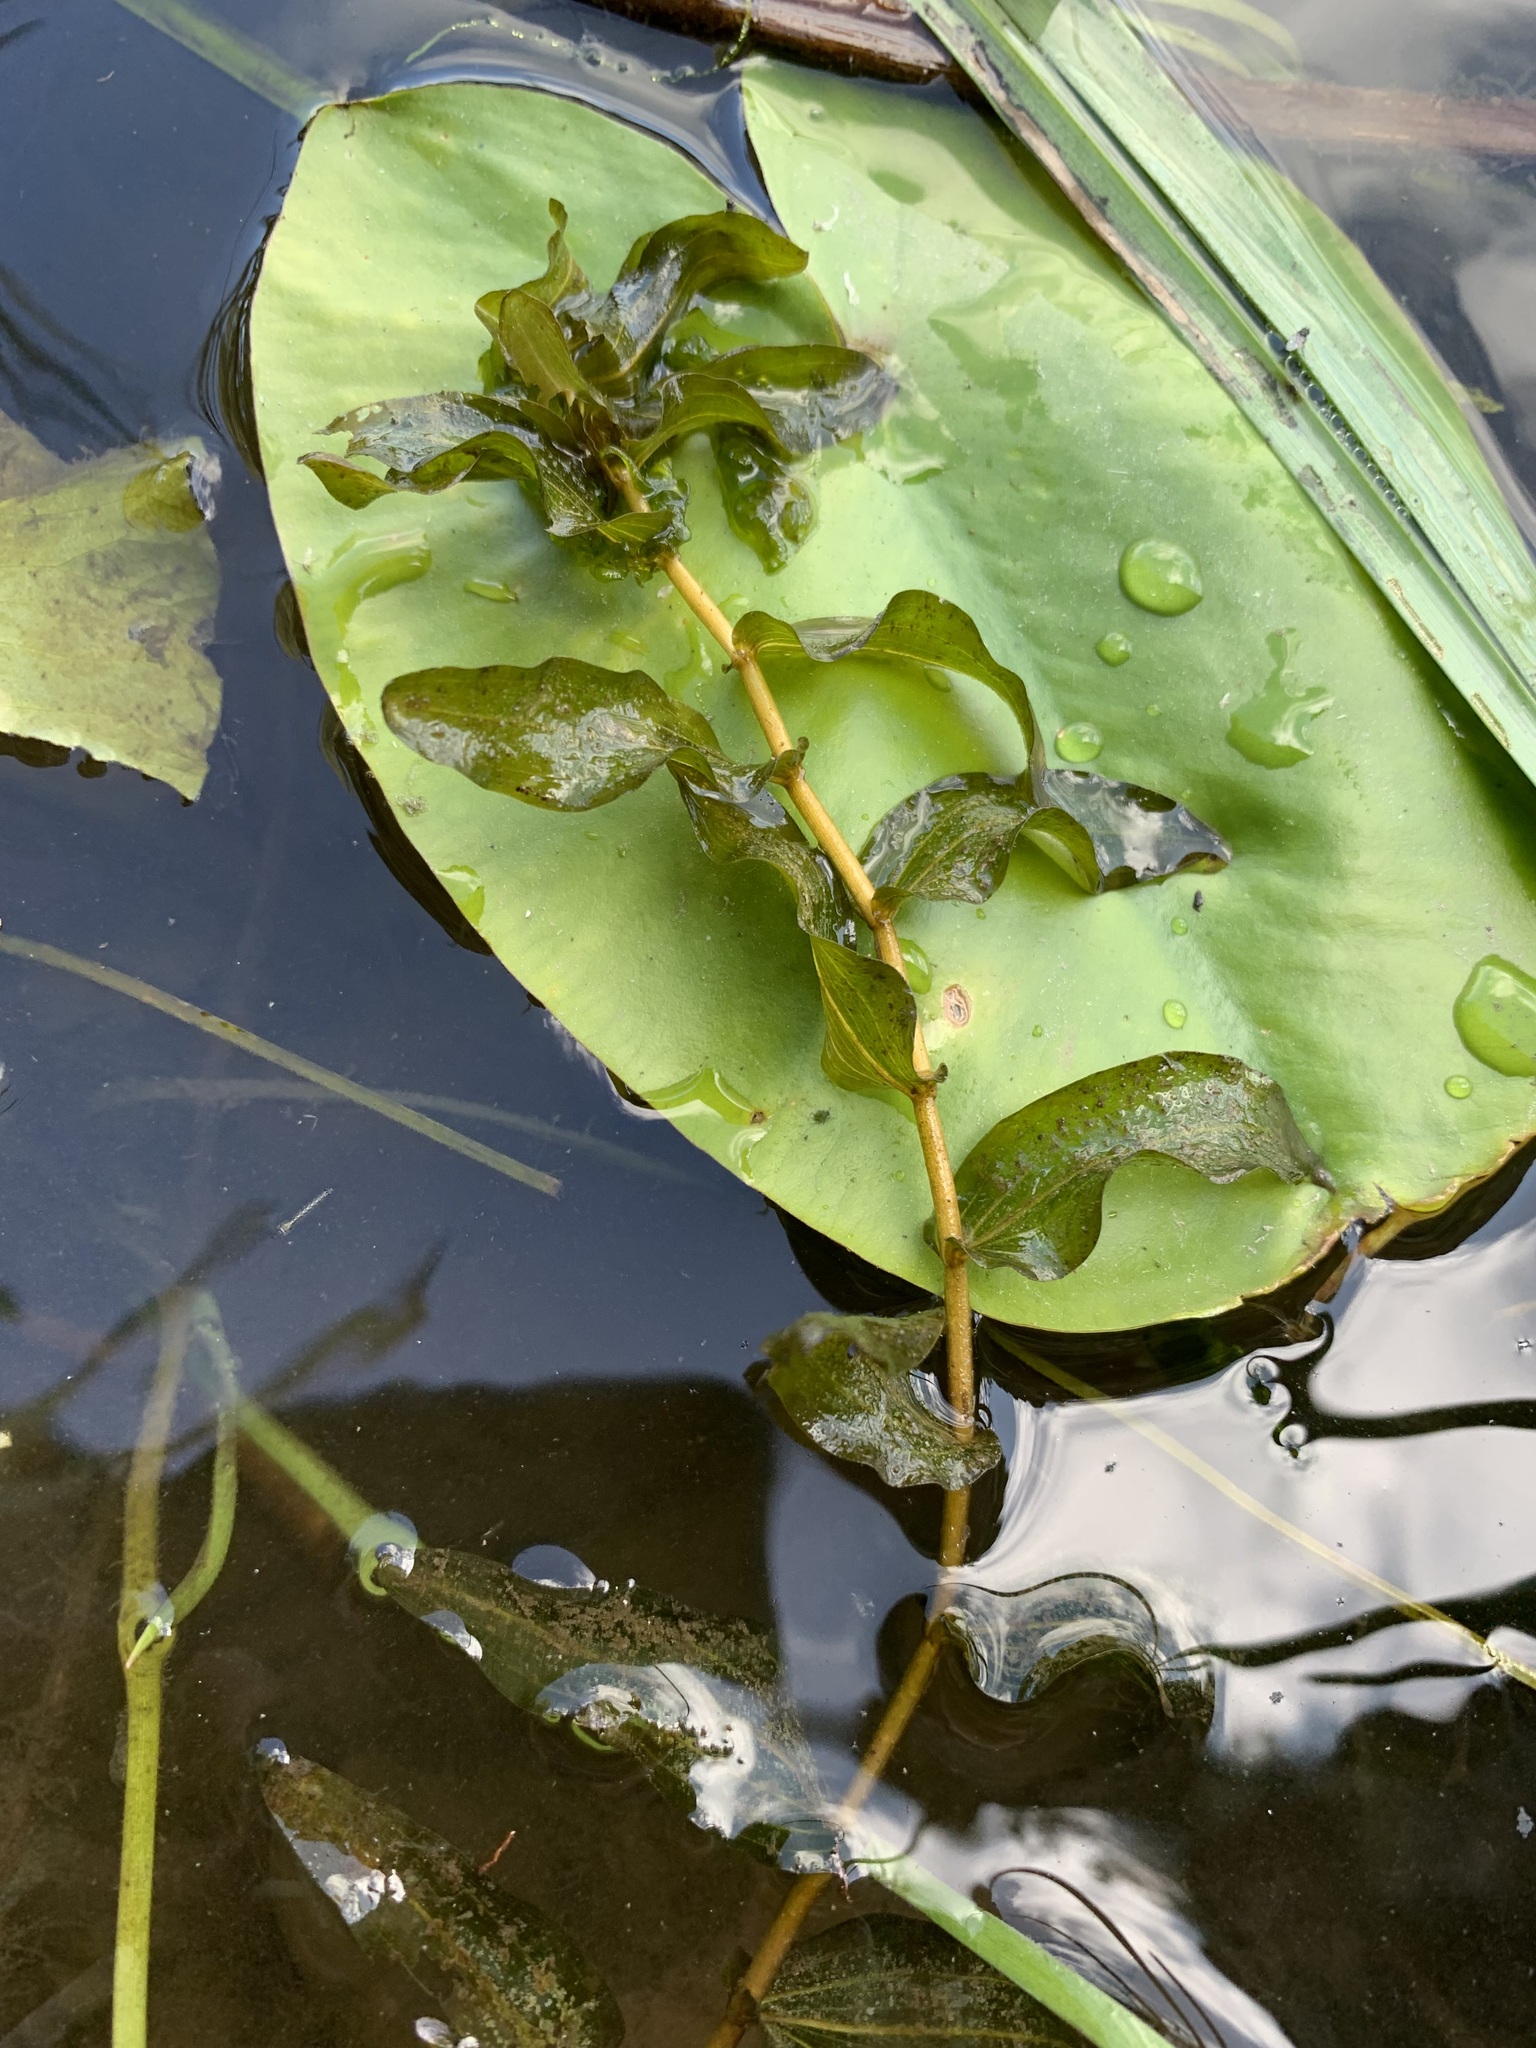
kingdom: Plantae
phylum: Tracheophyta
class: Liliopsida
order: Alismatales
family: Potamogetonaceae
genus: Potamogeton
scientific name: Potamogeton perfoliatus
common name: Perfoliate pondweed
